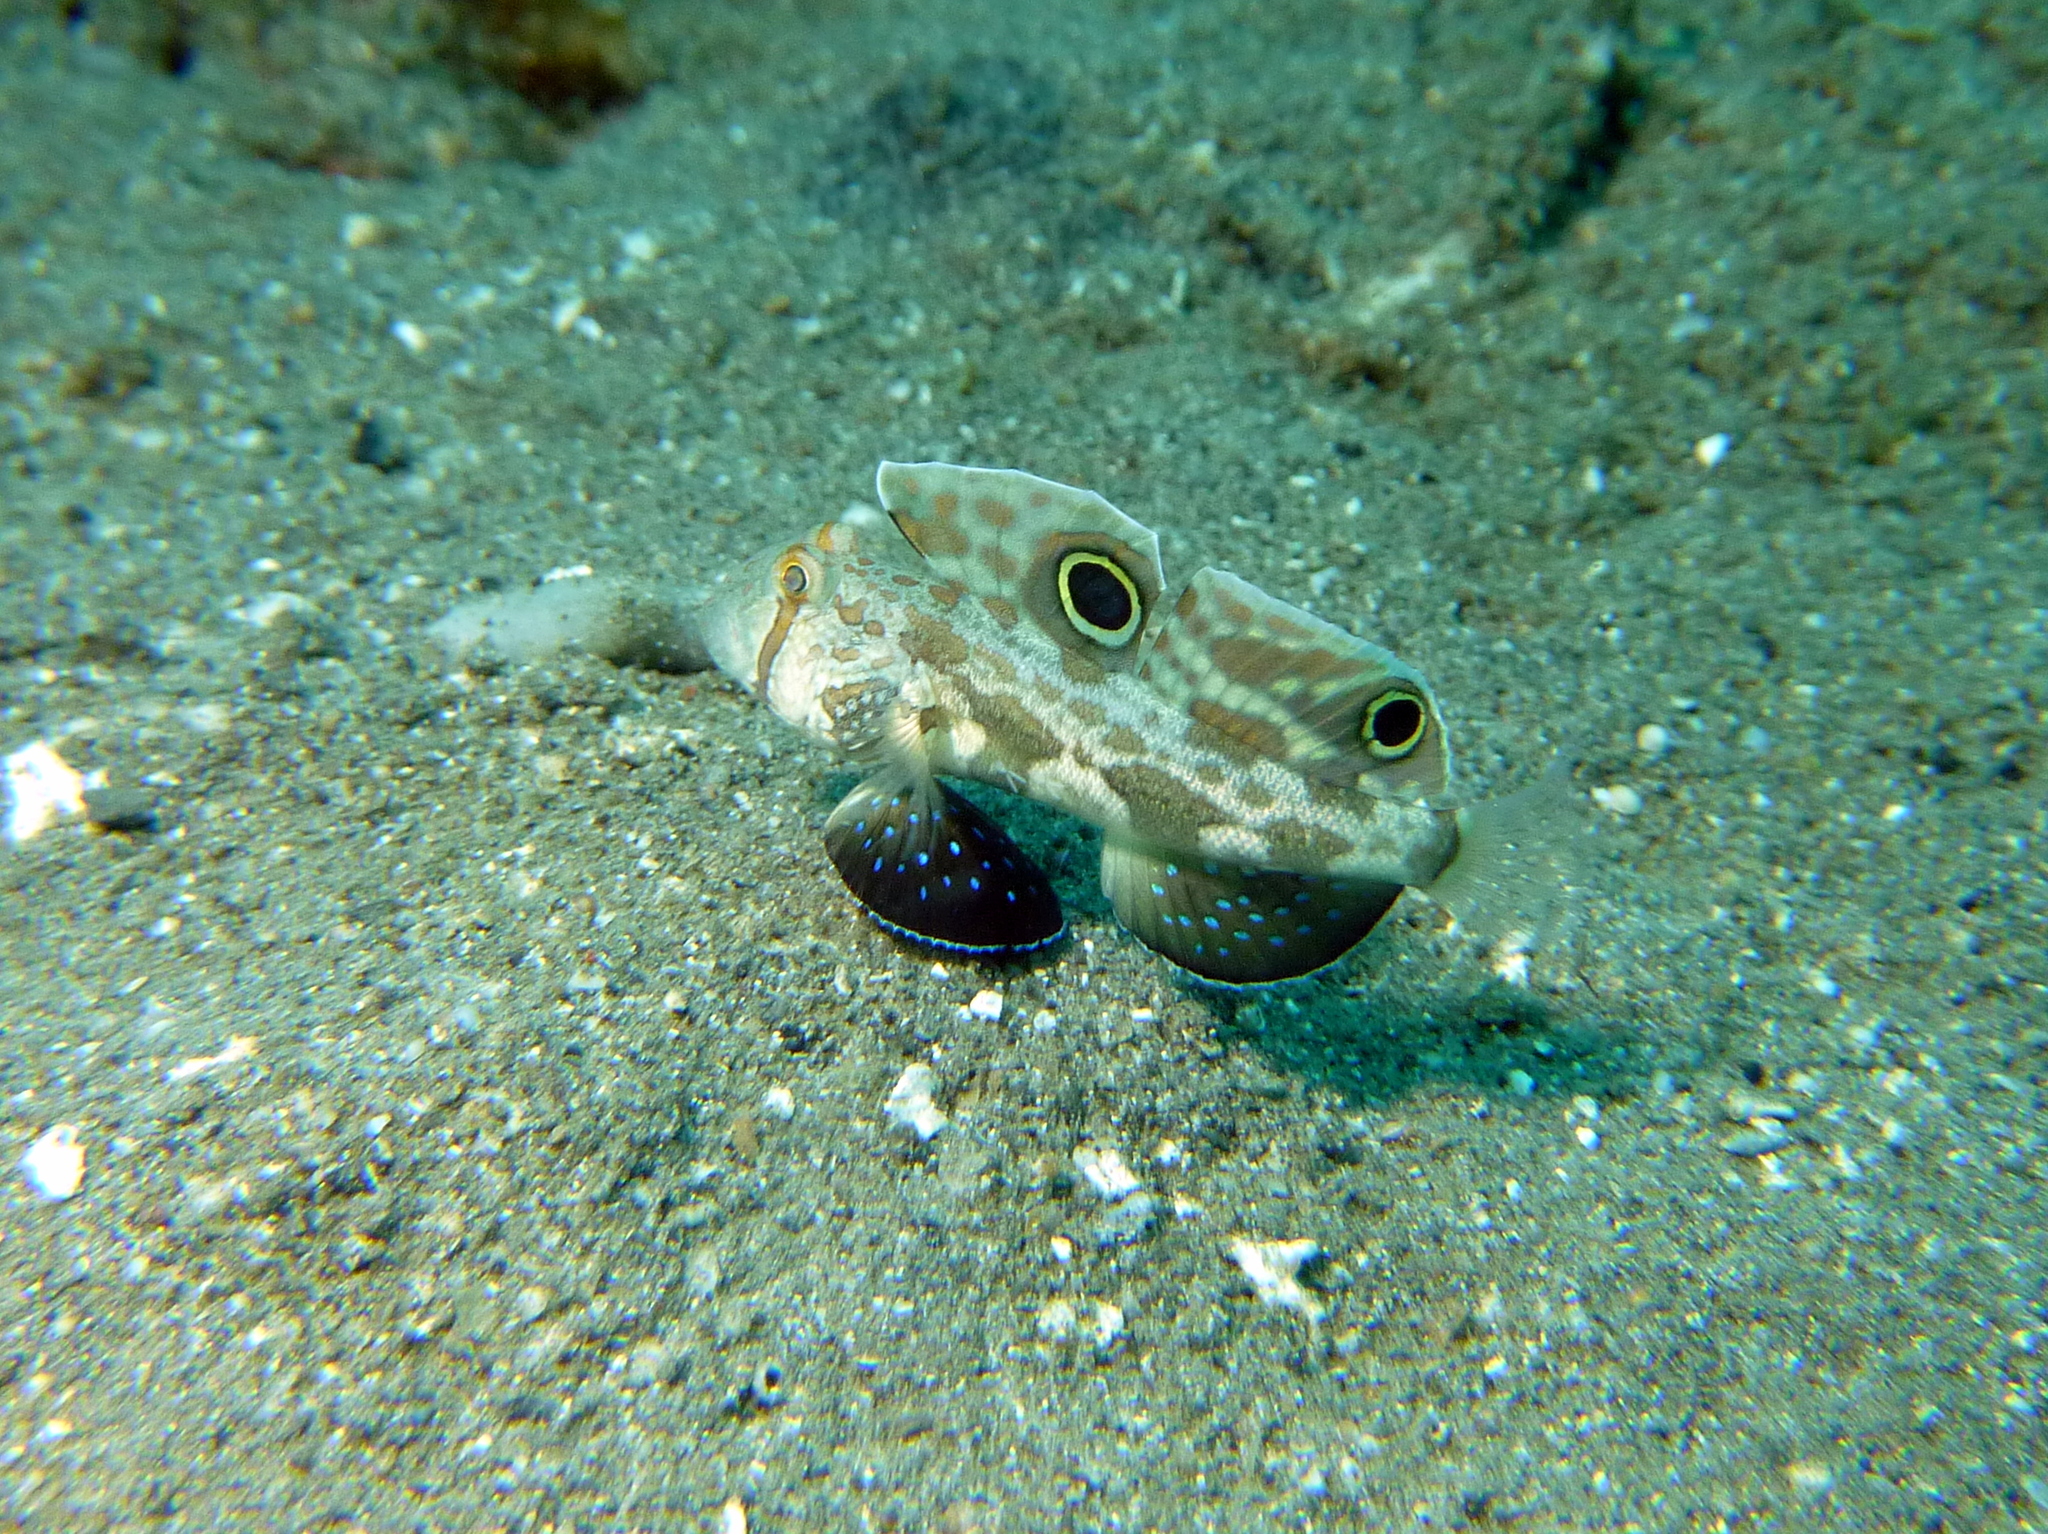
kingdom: Animalia
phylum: Chordata
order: Perciformes
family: Gobiidae
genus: Signigobius
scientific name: Signigobius biocellatus
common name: Crab-eye goby
